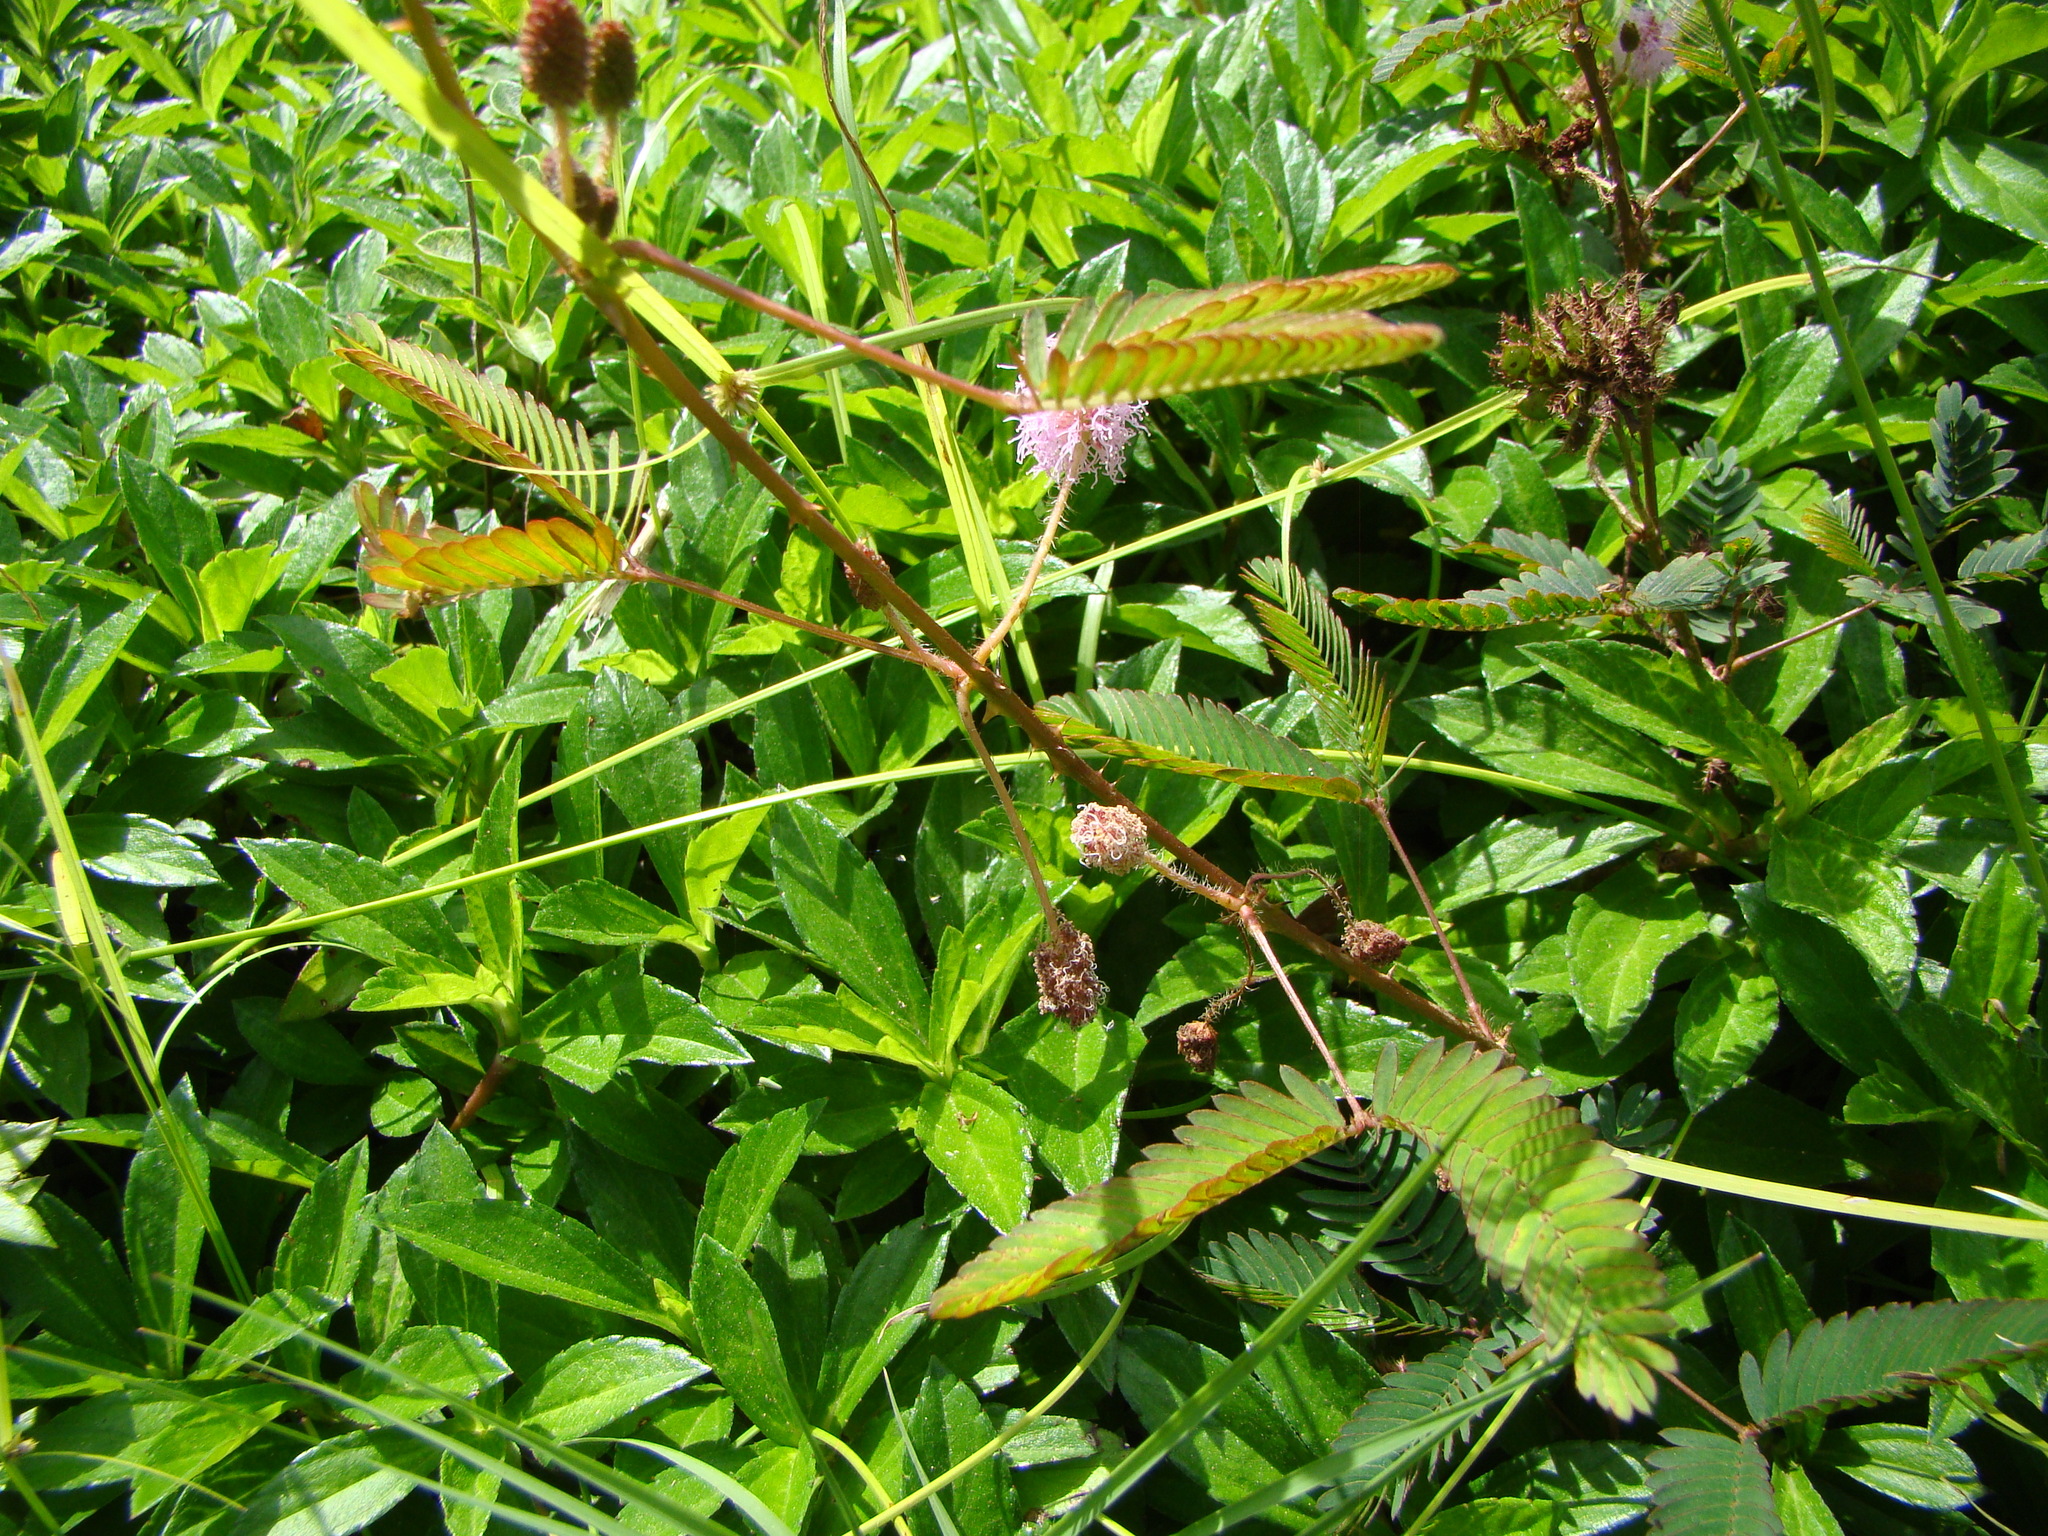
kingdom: Plantae
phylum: Tracheophyta
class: Magnoliopsida
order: Fabales
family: Fabaceae
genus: Mimosa
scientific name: Mimosa pudica
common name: Sensitive plant
